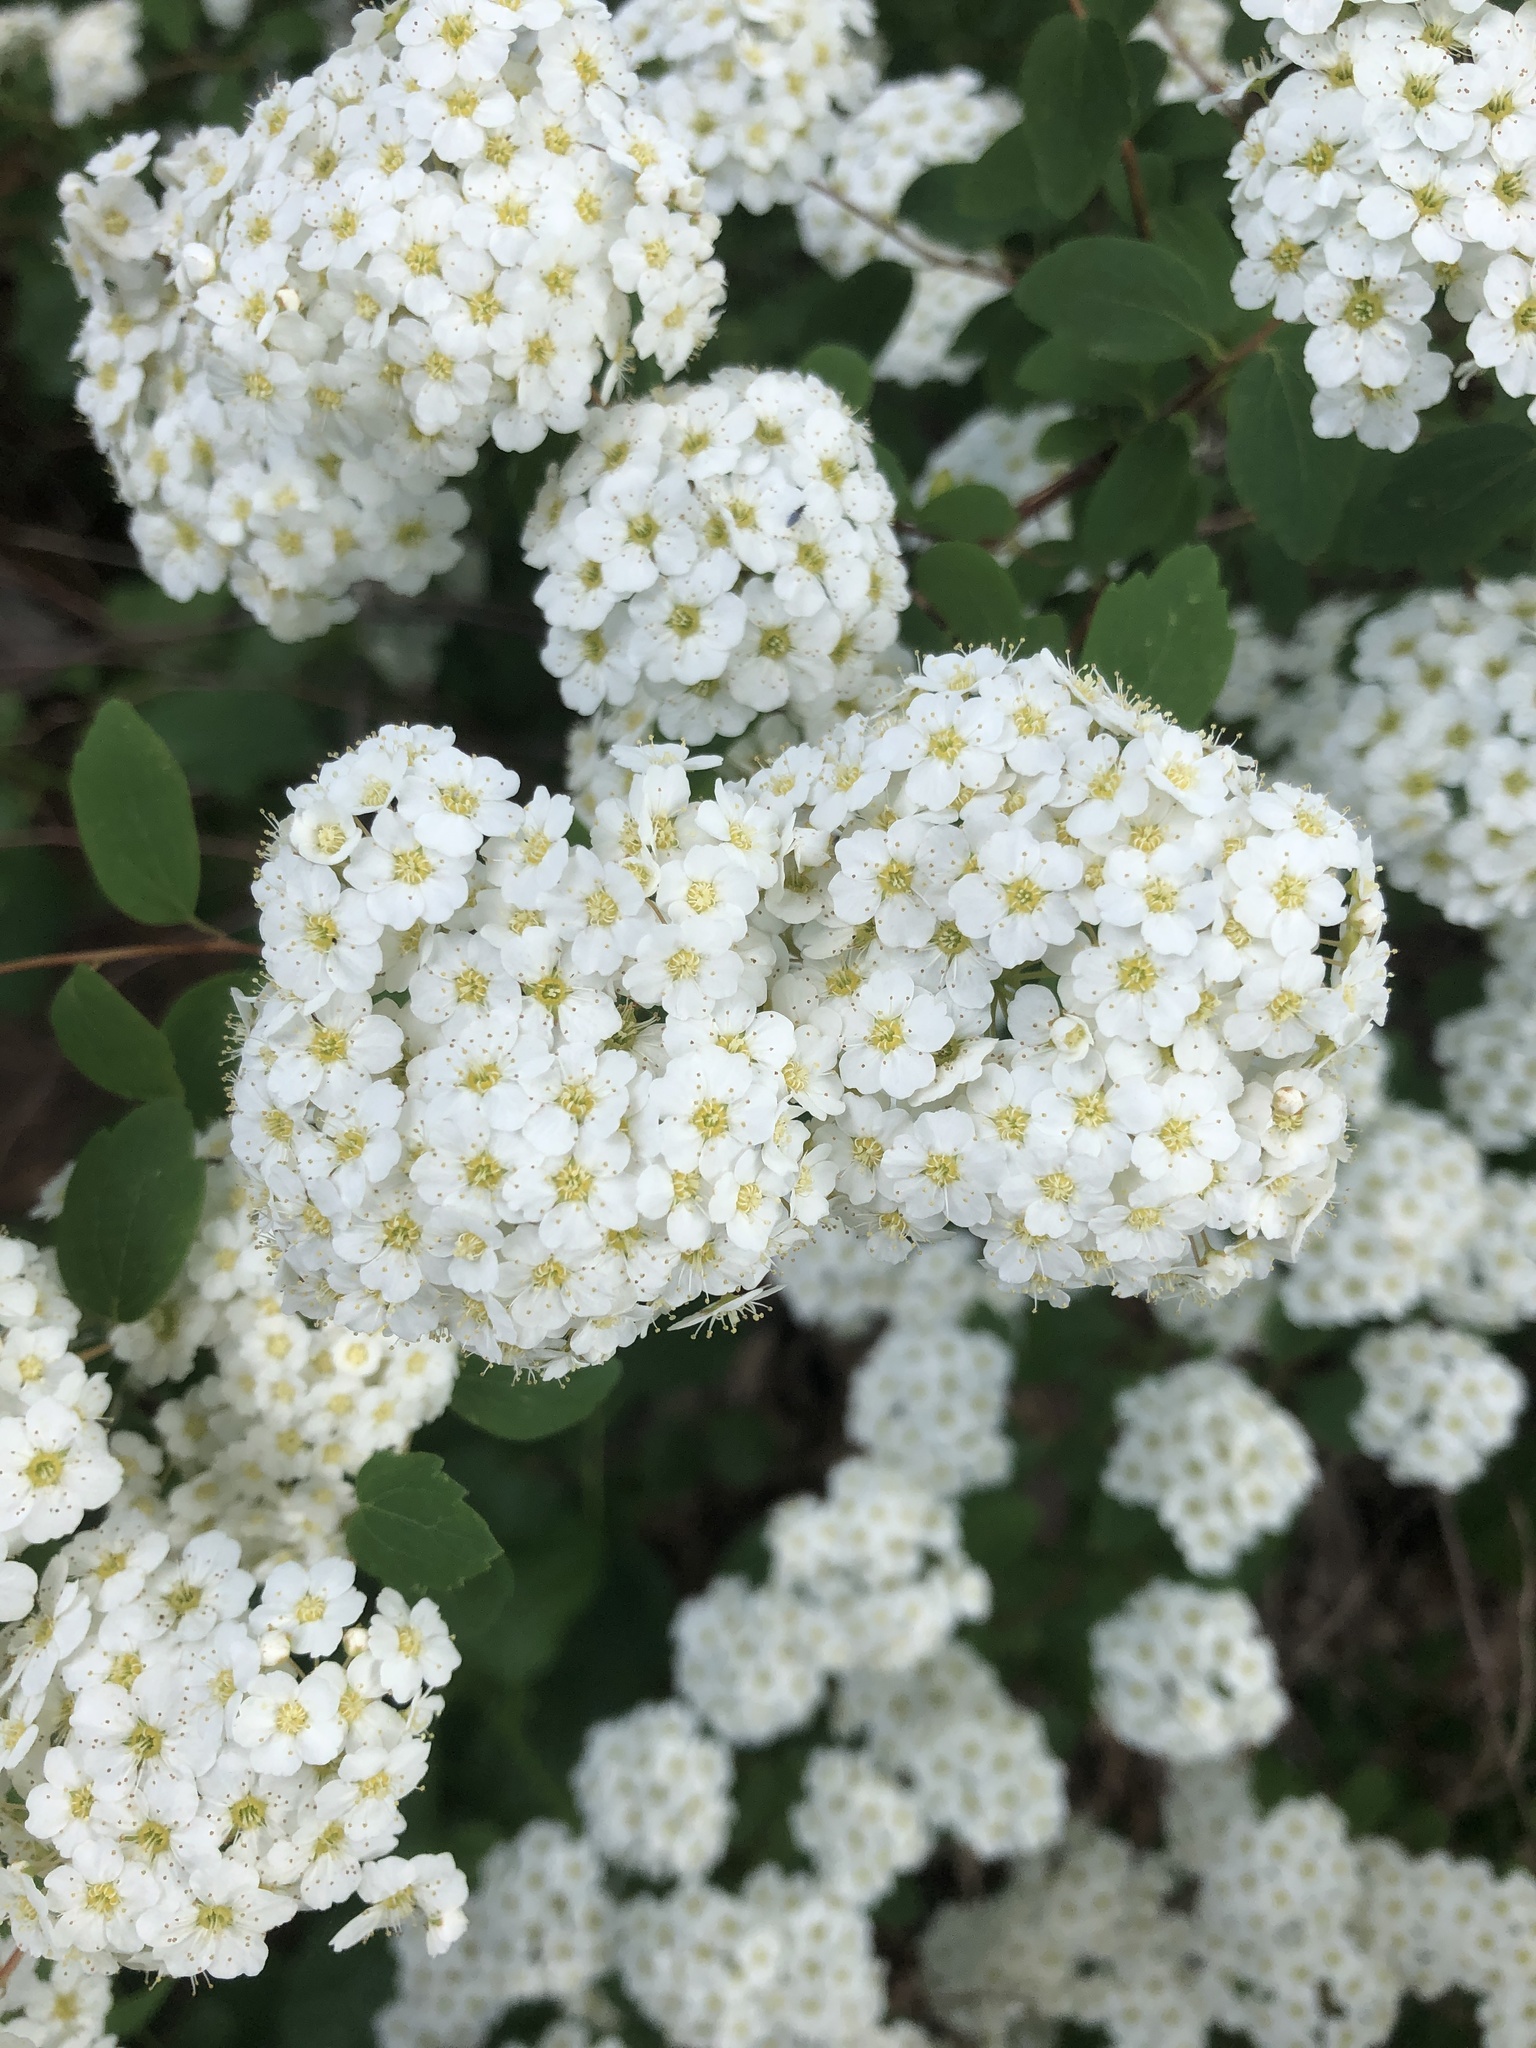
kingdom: Plantae
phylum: Tracheophyta
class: Magnoliopsida
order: Rosales
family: Rosaceae
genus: Spiraea
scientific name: Spiraea vanhouttei
